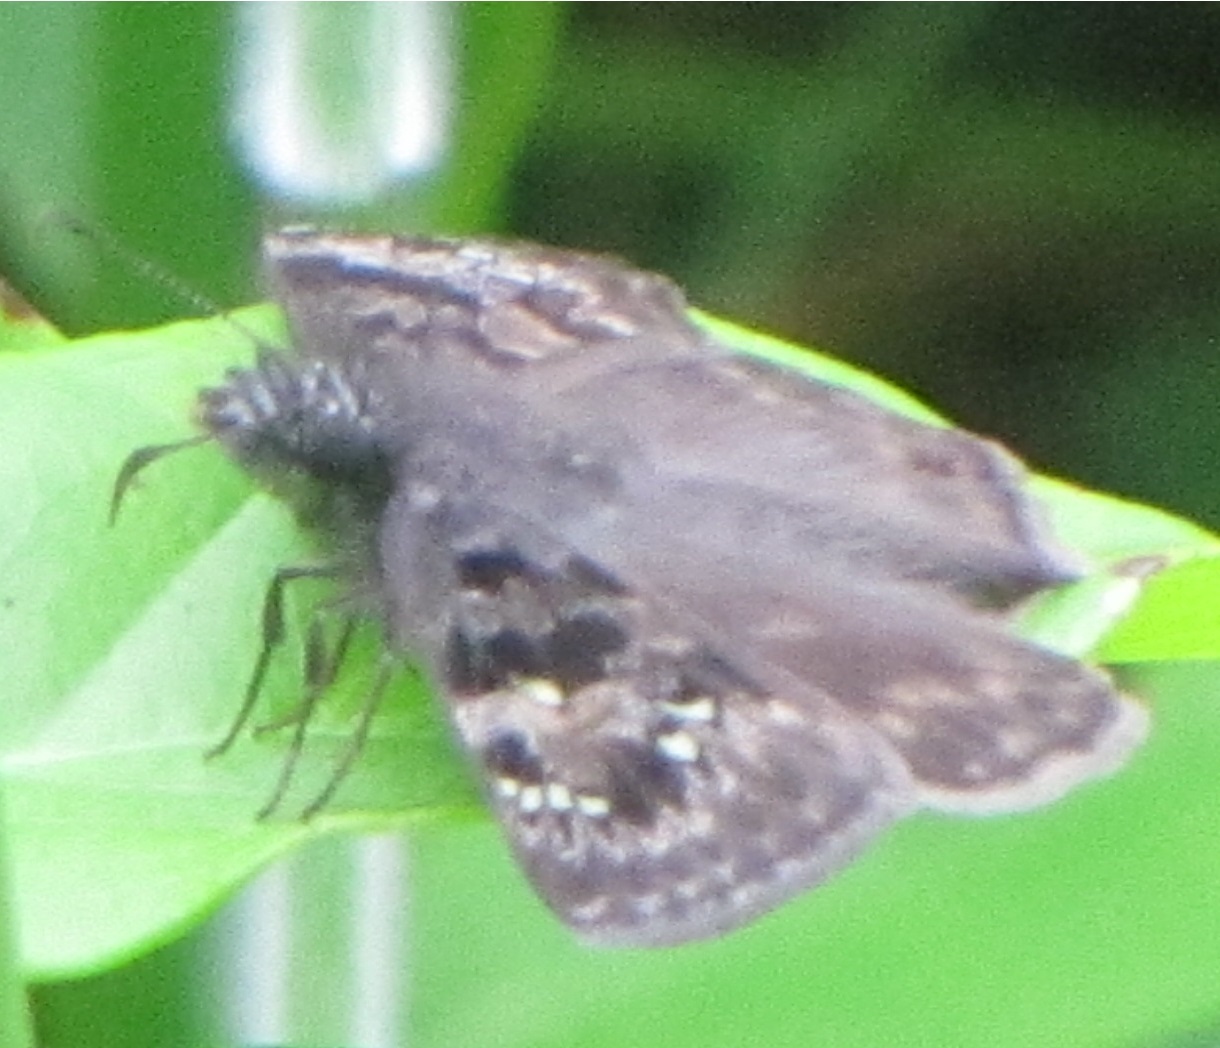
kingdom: Animalia
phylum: Arthropoda
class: Insecta
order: Lepidoptera
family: Hesperiidae
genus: Erynnis
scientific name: Erynnis horatius
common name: Horace's duskywing
